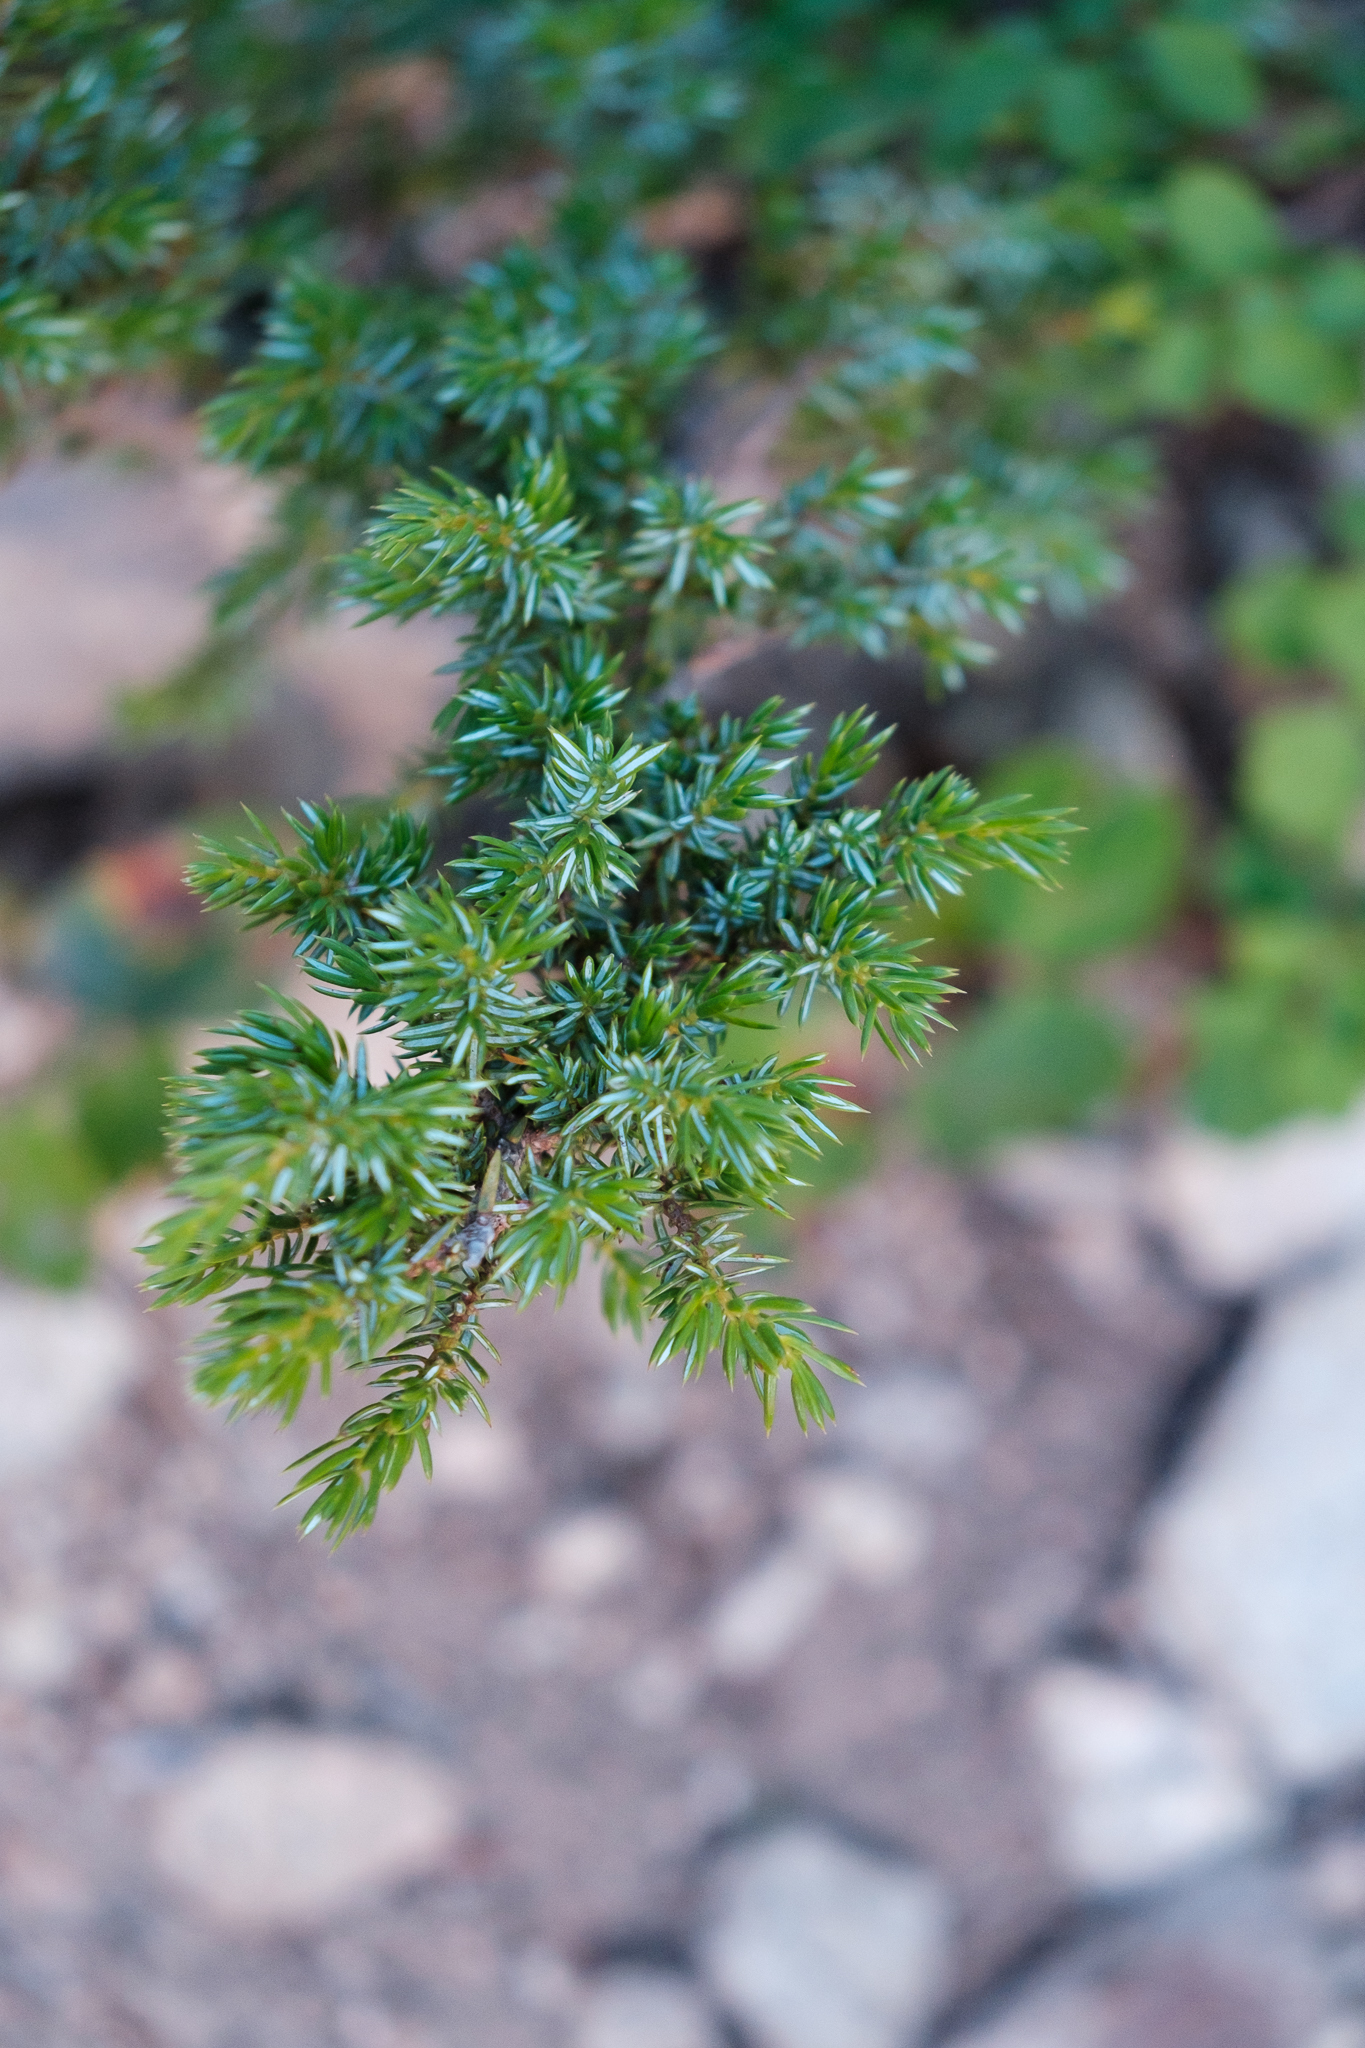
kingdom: Plantae
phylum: Tracheophyta
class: Pinopsida
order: Pinales
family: Cupressaceae
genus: Juniperus
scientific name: Juniperus communis
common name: Common juniper
